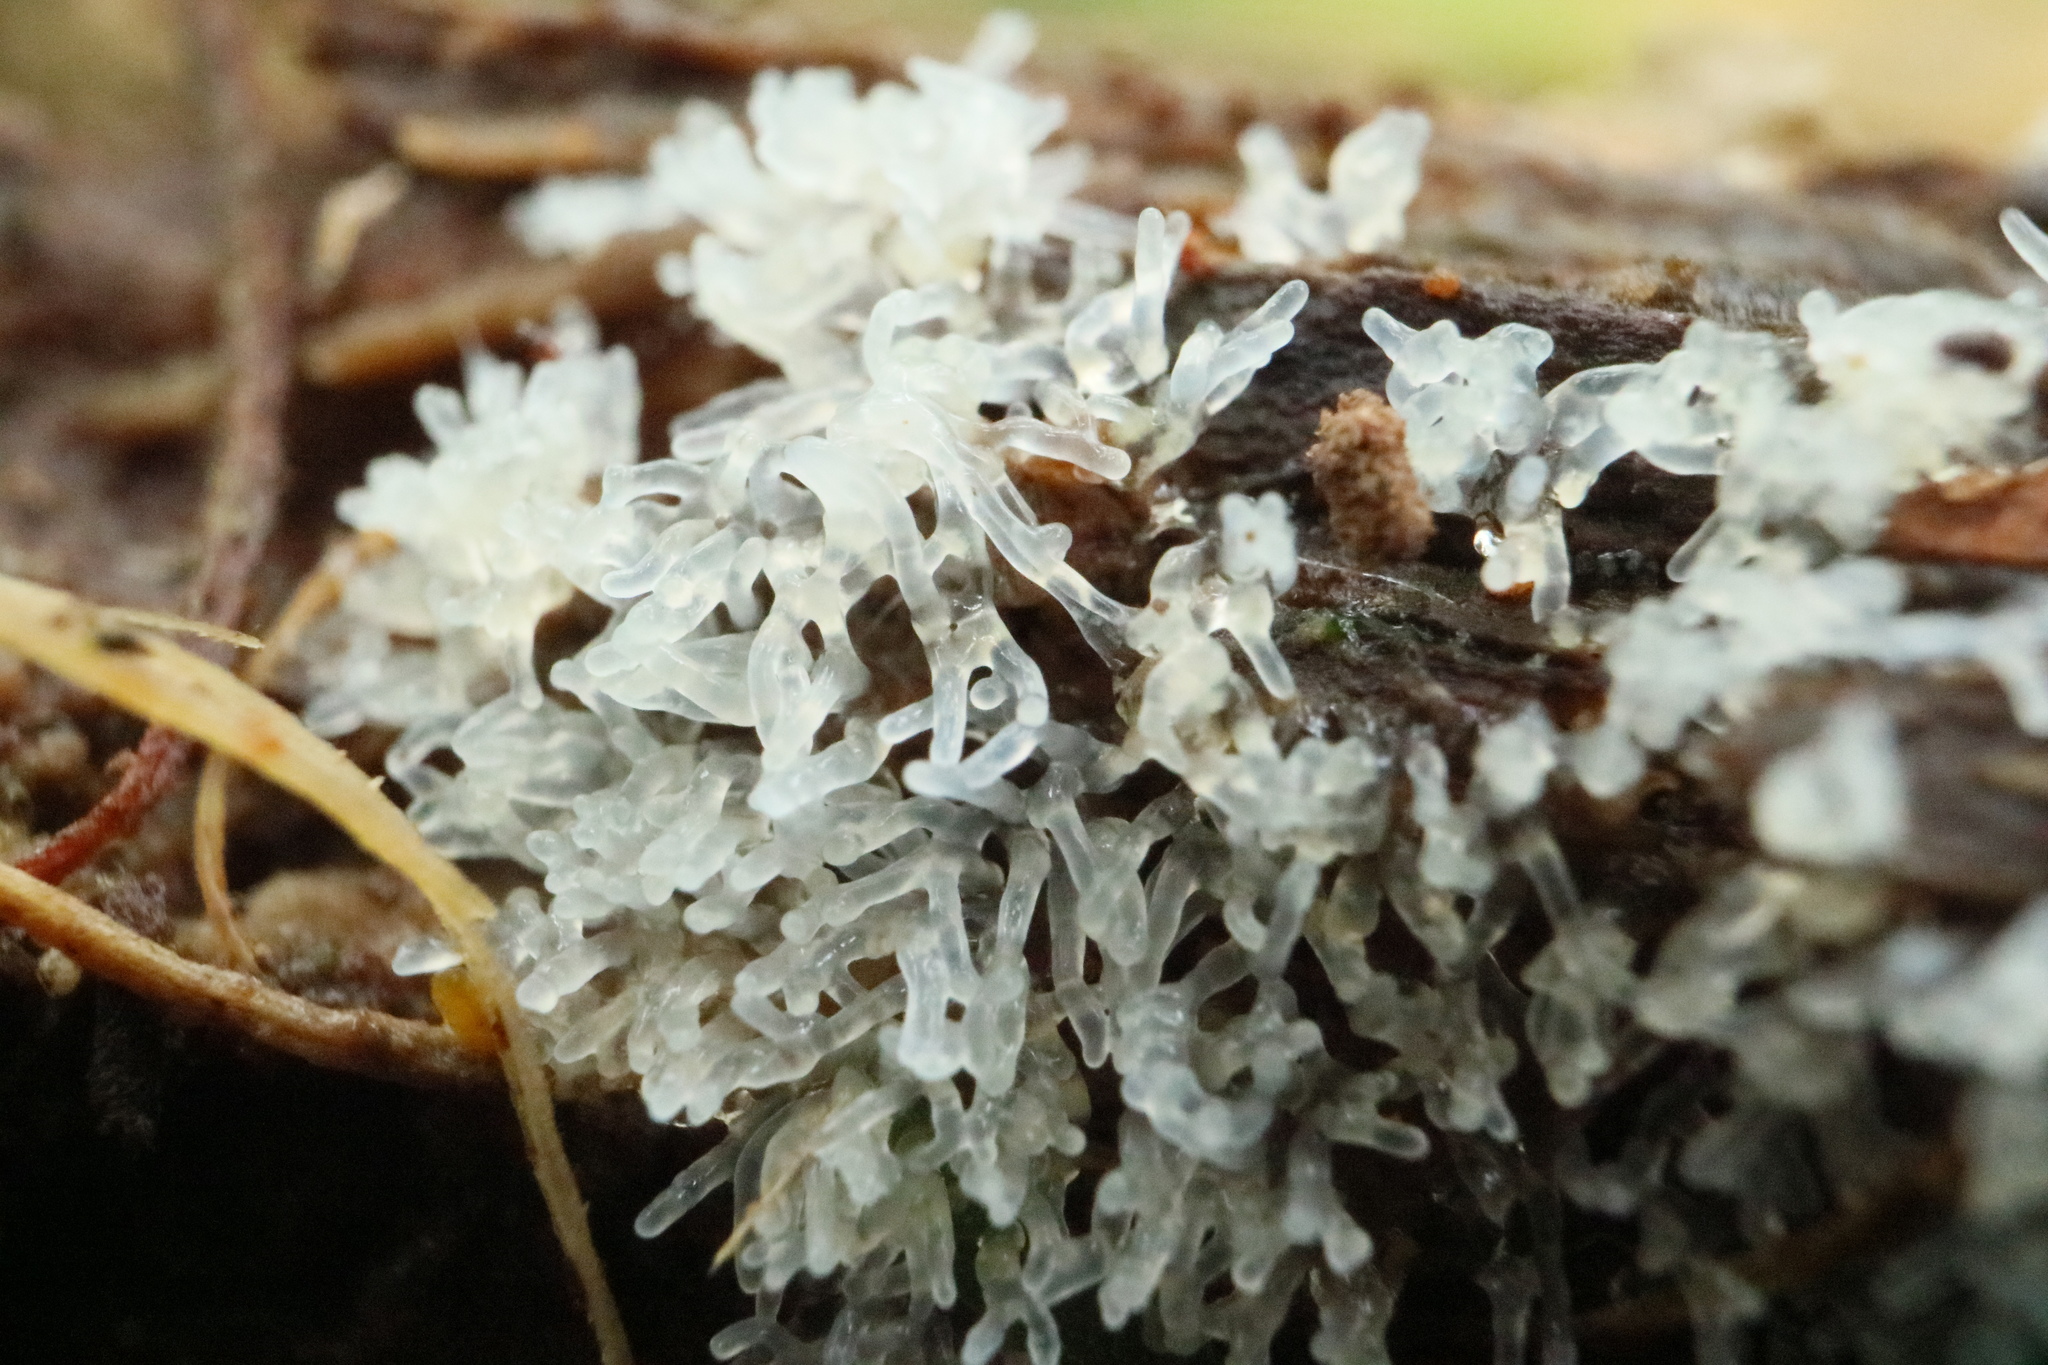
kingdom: Protozoa
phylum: Mycetozoa
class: Protosteliomycetes
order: Ceratiomyxales
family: Ceratiomyxaceae
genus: Ceratiomyxa
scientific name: Ceratiomyxa fruticulosa
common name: Honeycomb coral slime mold
